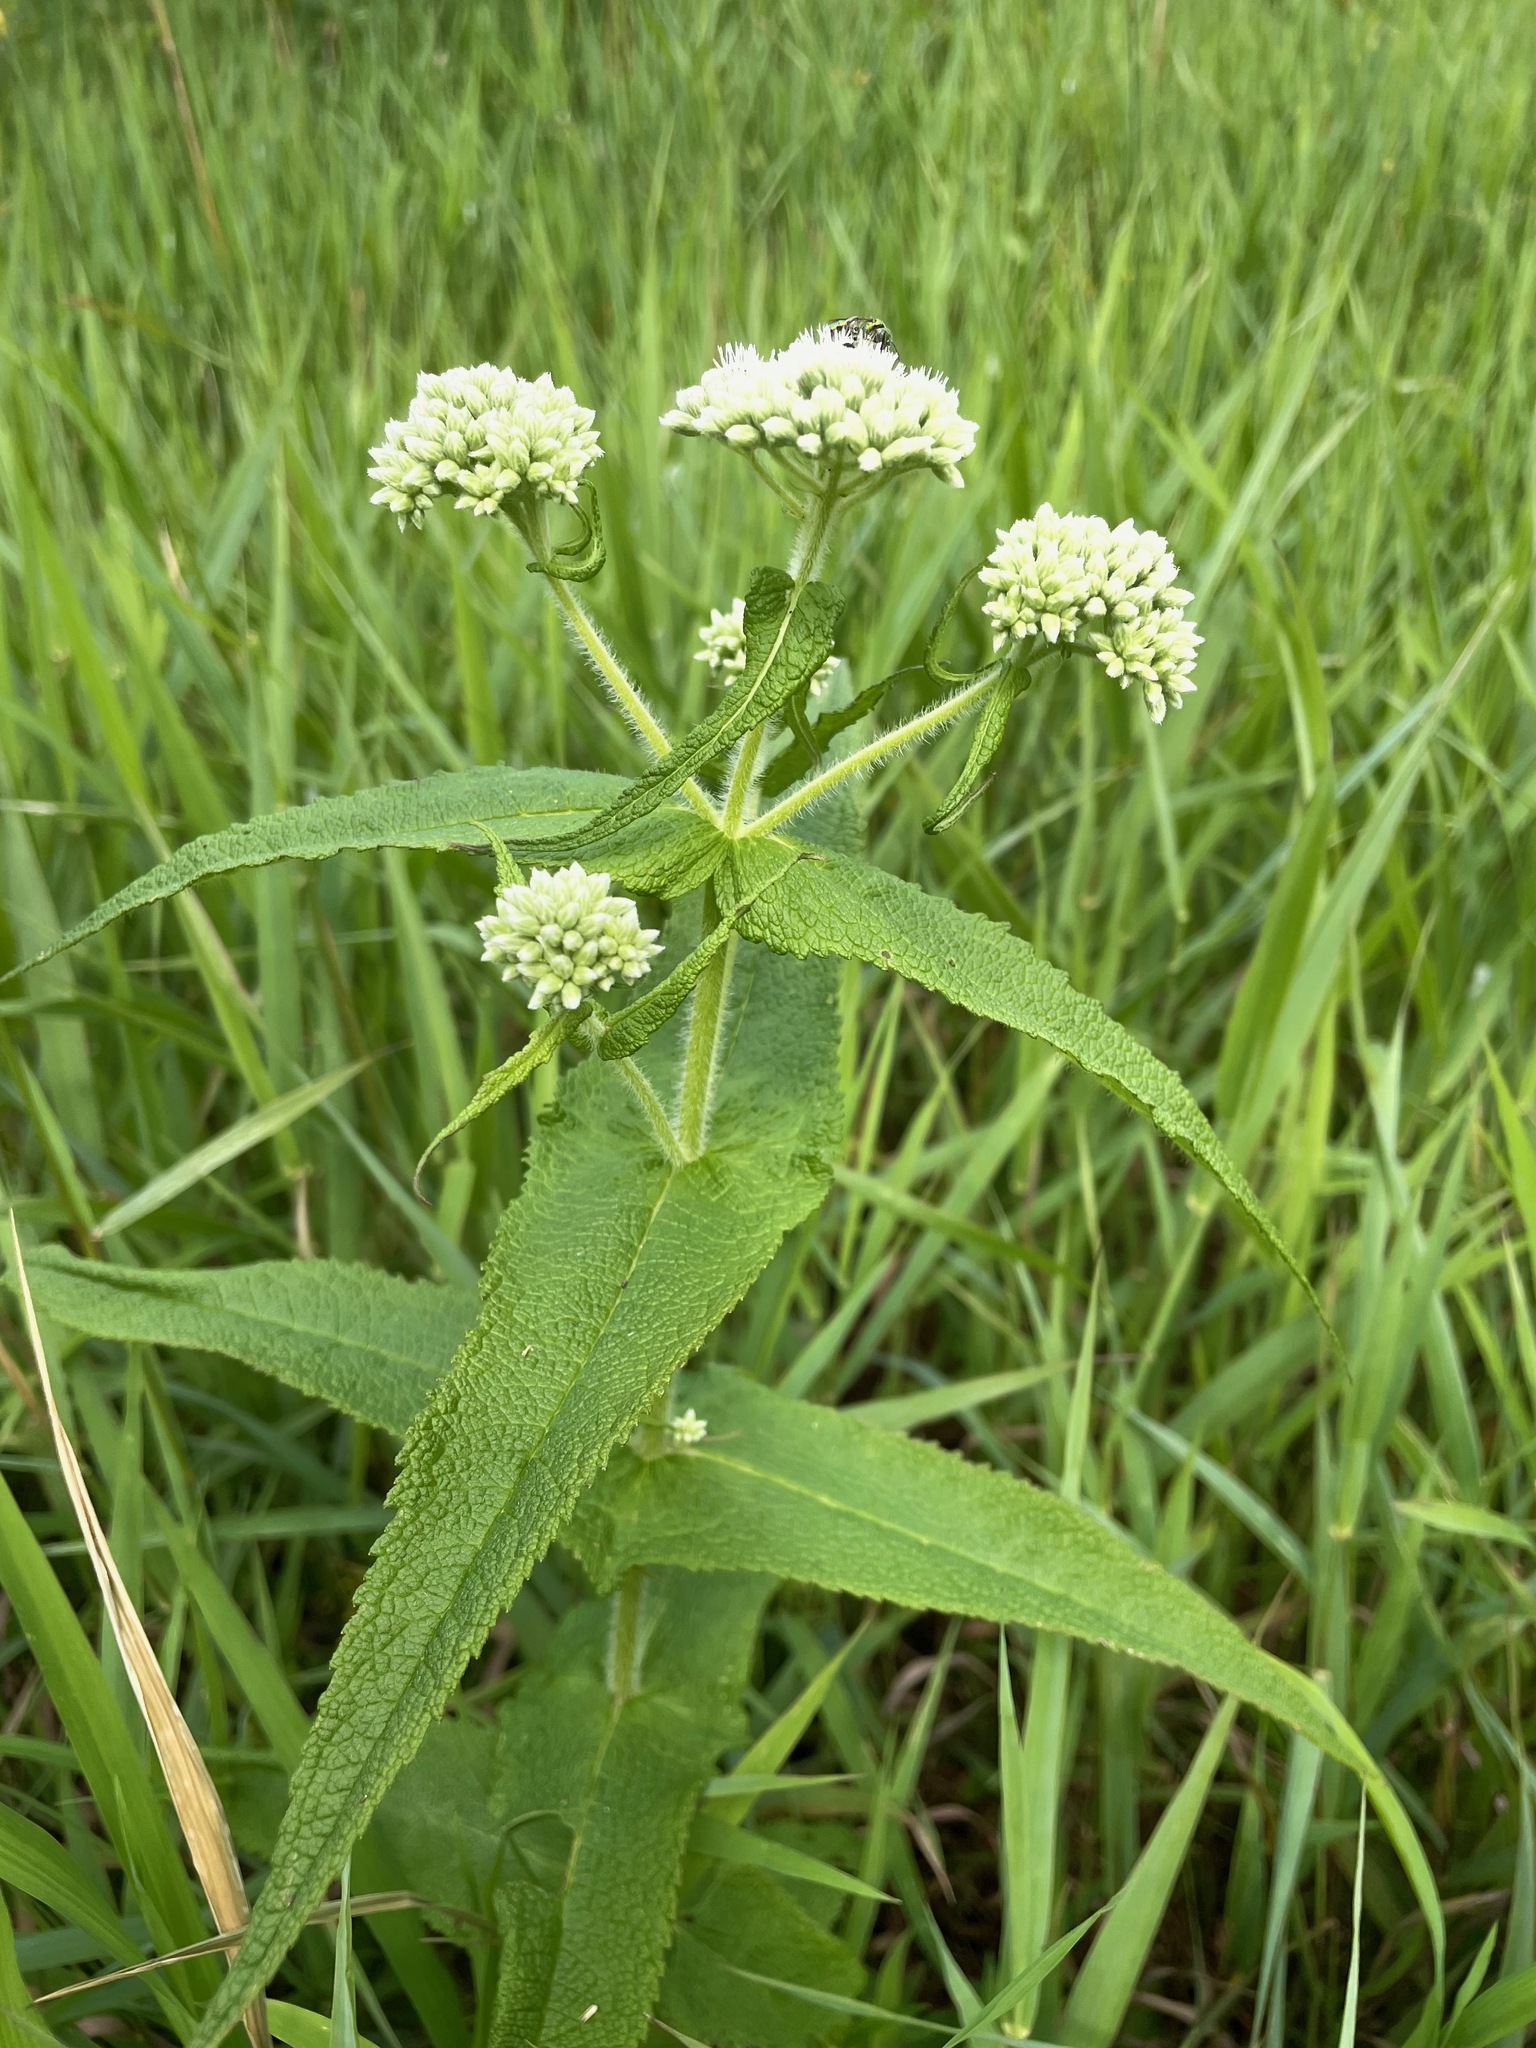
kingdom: Plantae
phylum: Tracheophyta
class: Magnoliopsida
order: Asterales
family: Asteraceae
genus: Eupatorium
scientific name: Eupatorium perfoliatum
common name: Boneset
